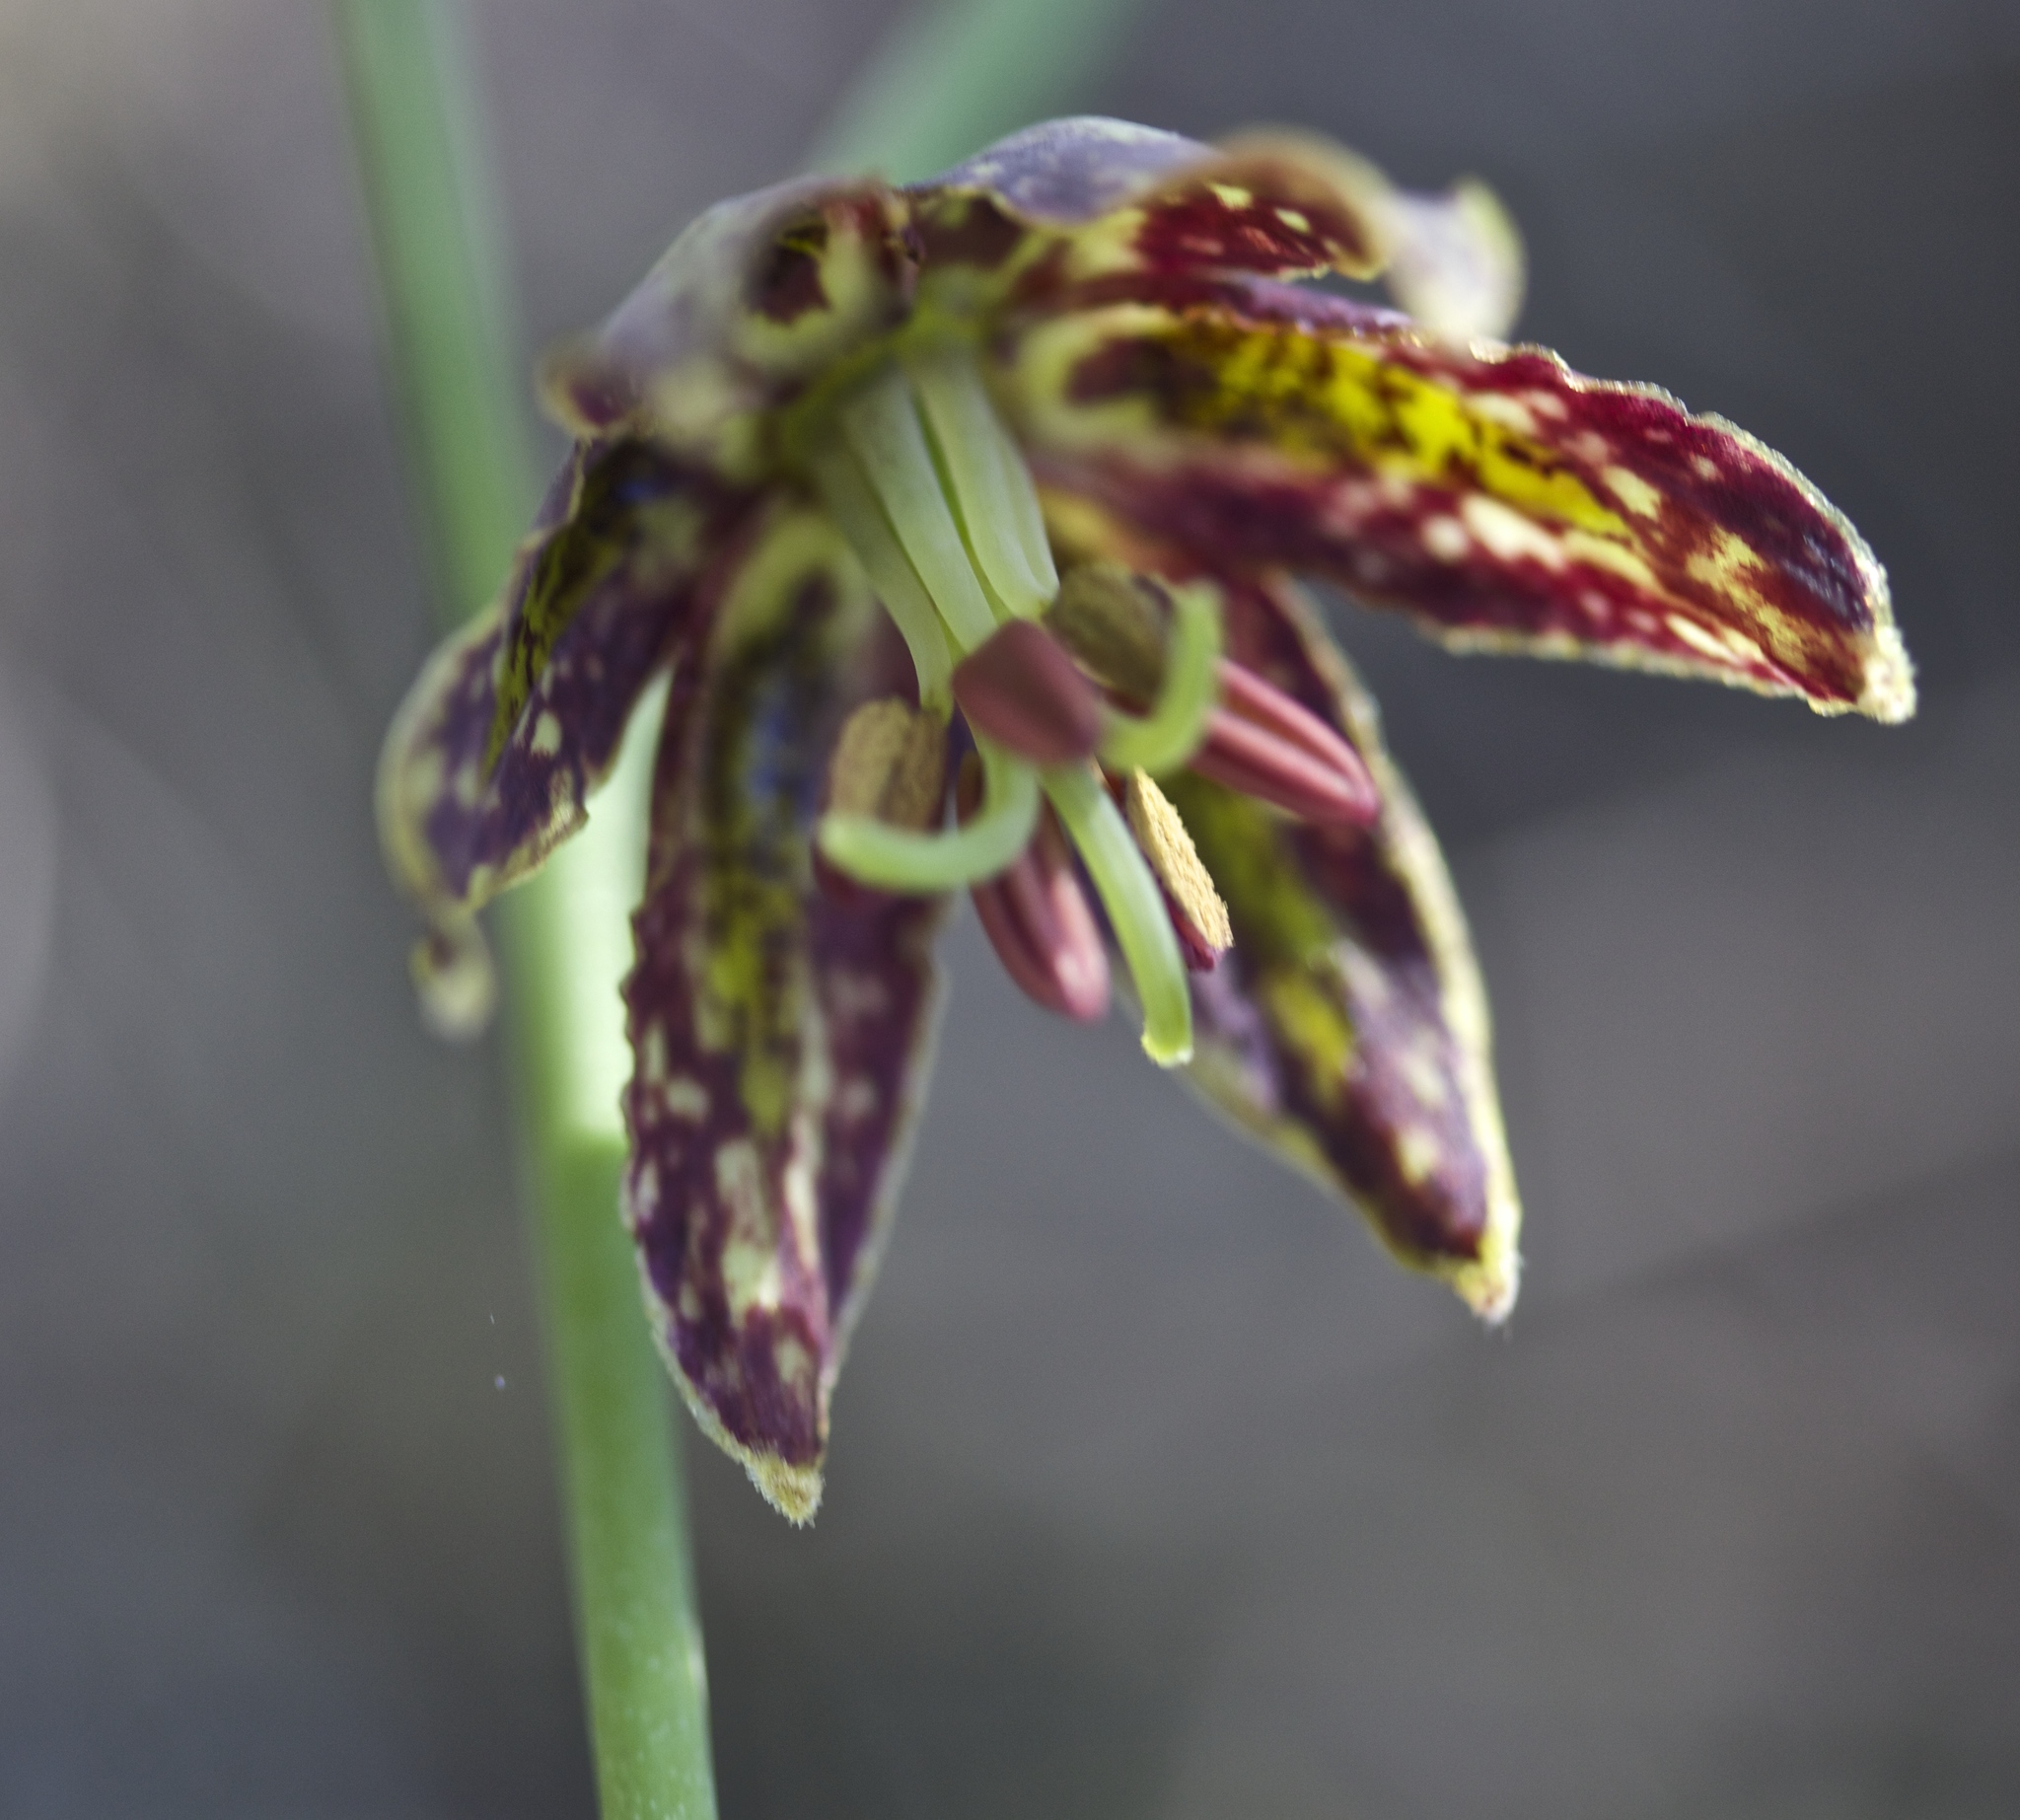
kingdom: Plantae
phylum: Tracheophyta
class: Liliopsida
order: Liliales
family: Liliaceae
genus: Fritillaria
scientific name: Fritillaria affinis
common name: Ojai fritillary
